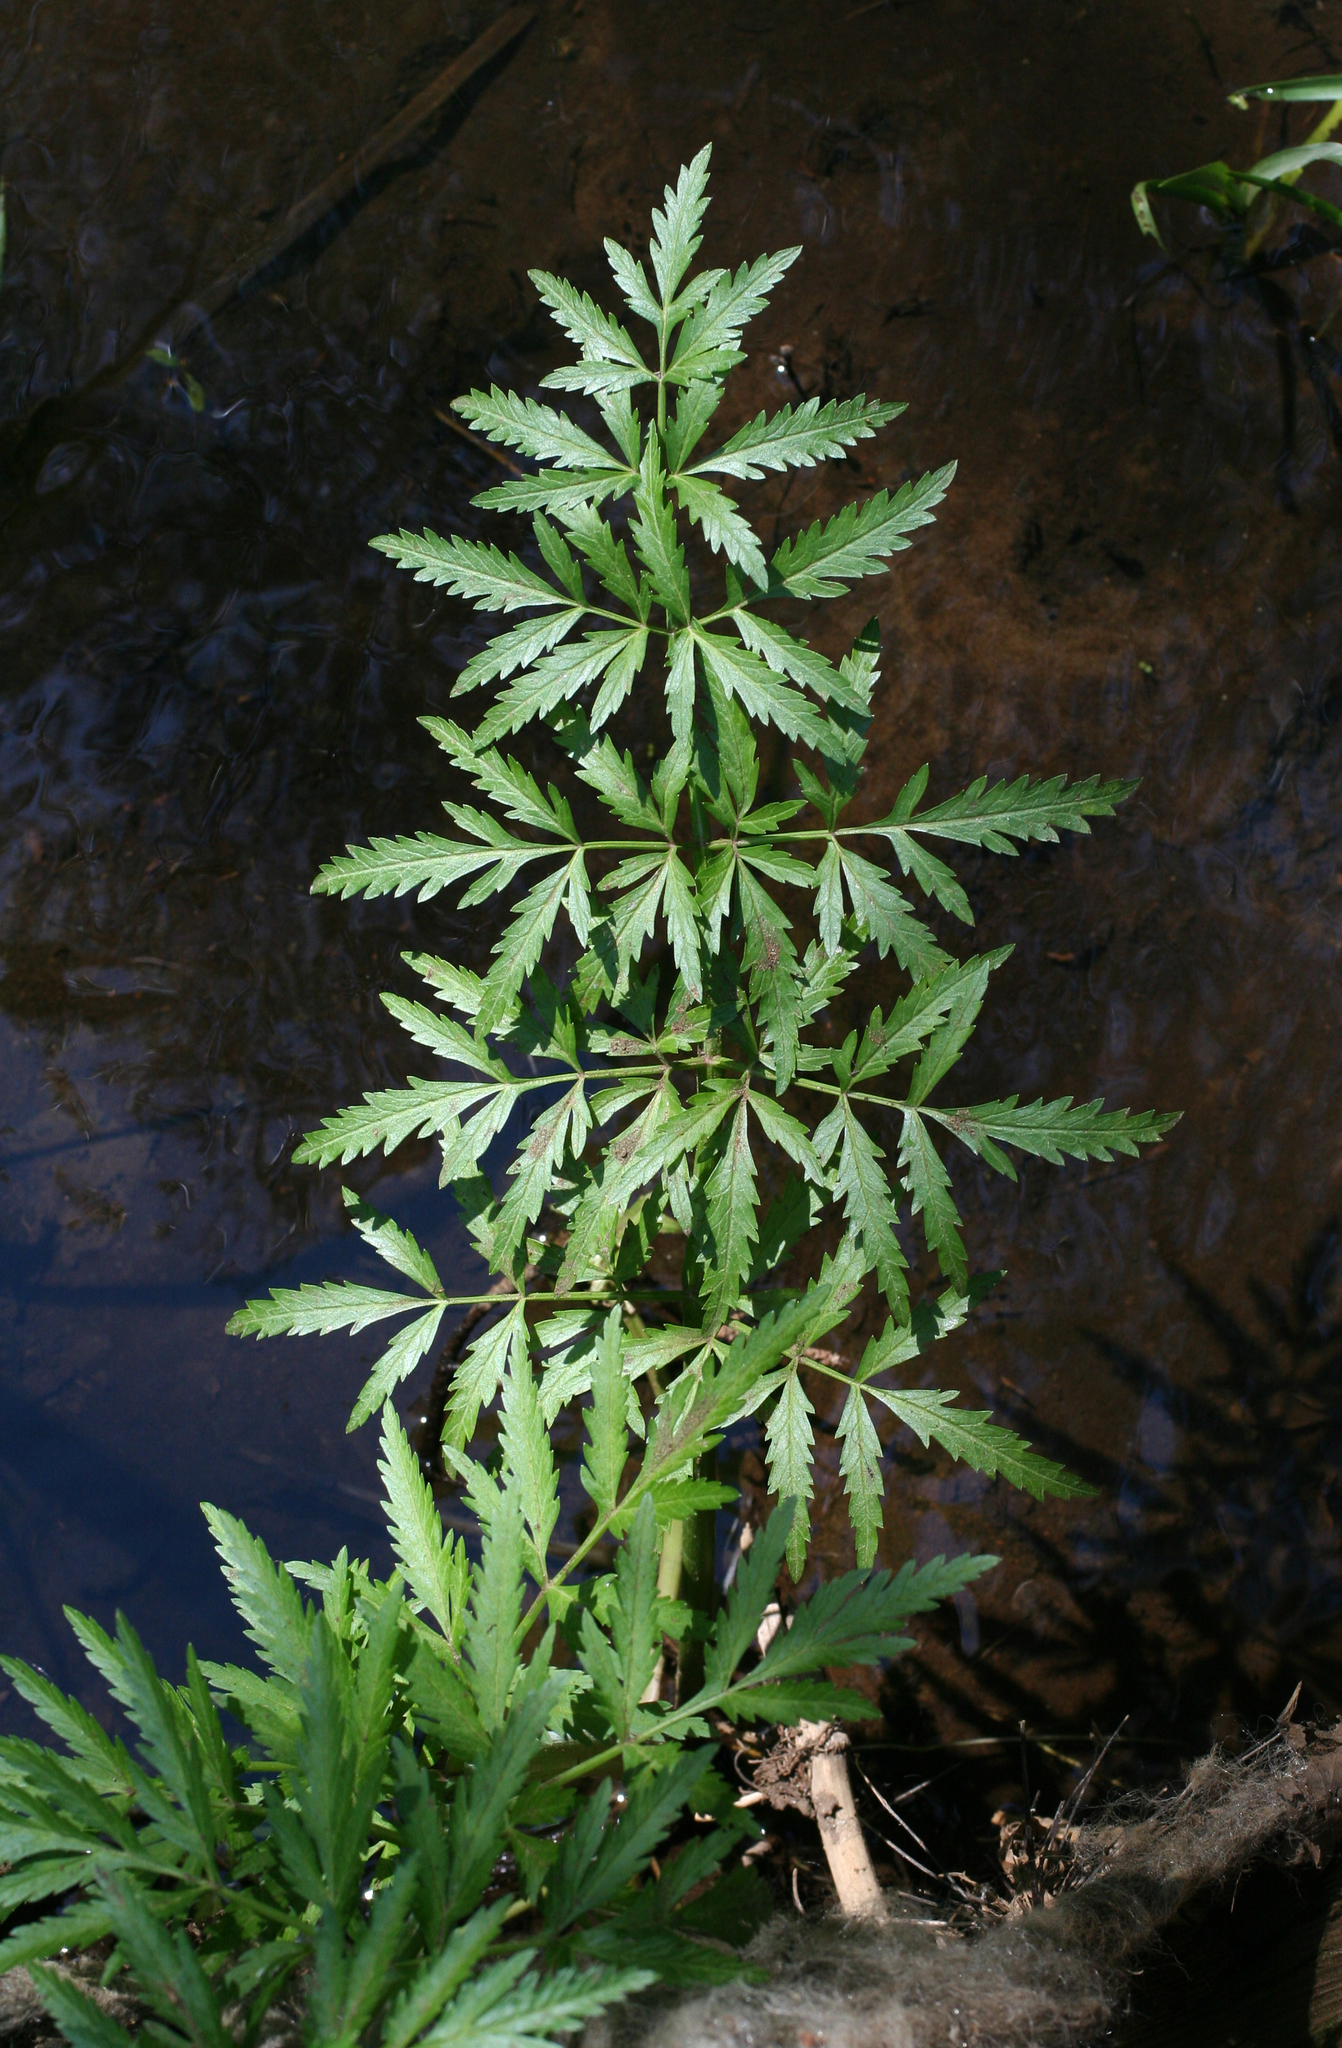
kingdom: Plantae
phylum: Tracheophyta
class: Magnoliopsida
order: Apiales
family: Apiaceae
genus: Cicuta
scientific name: Cicuta virosa
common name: Cowbane
